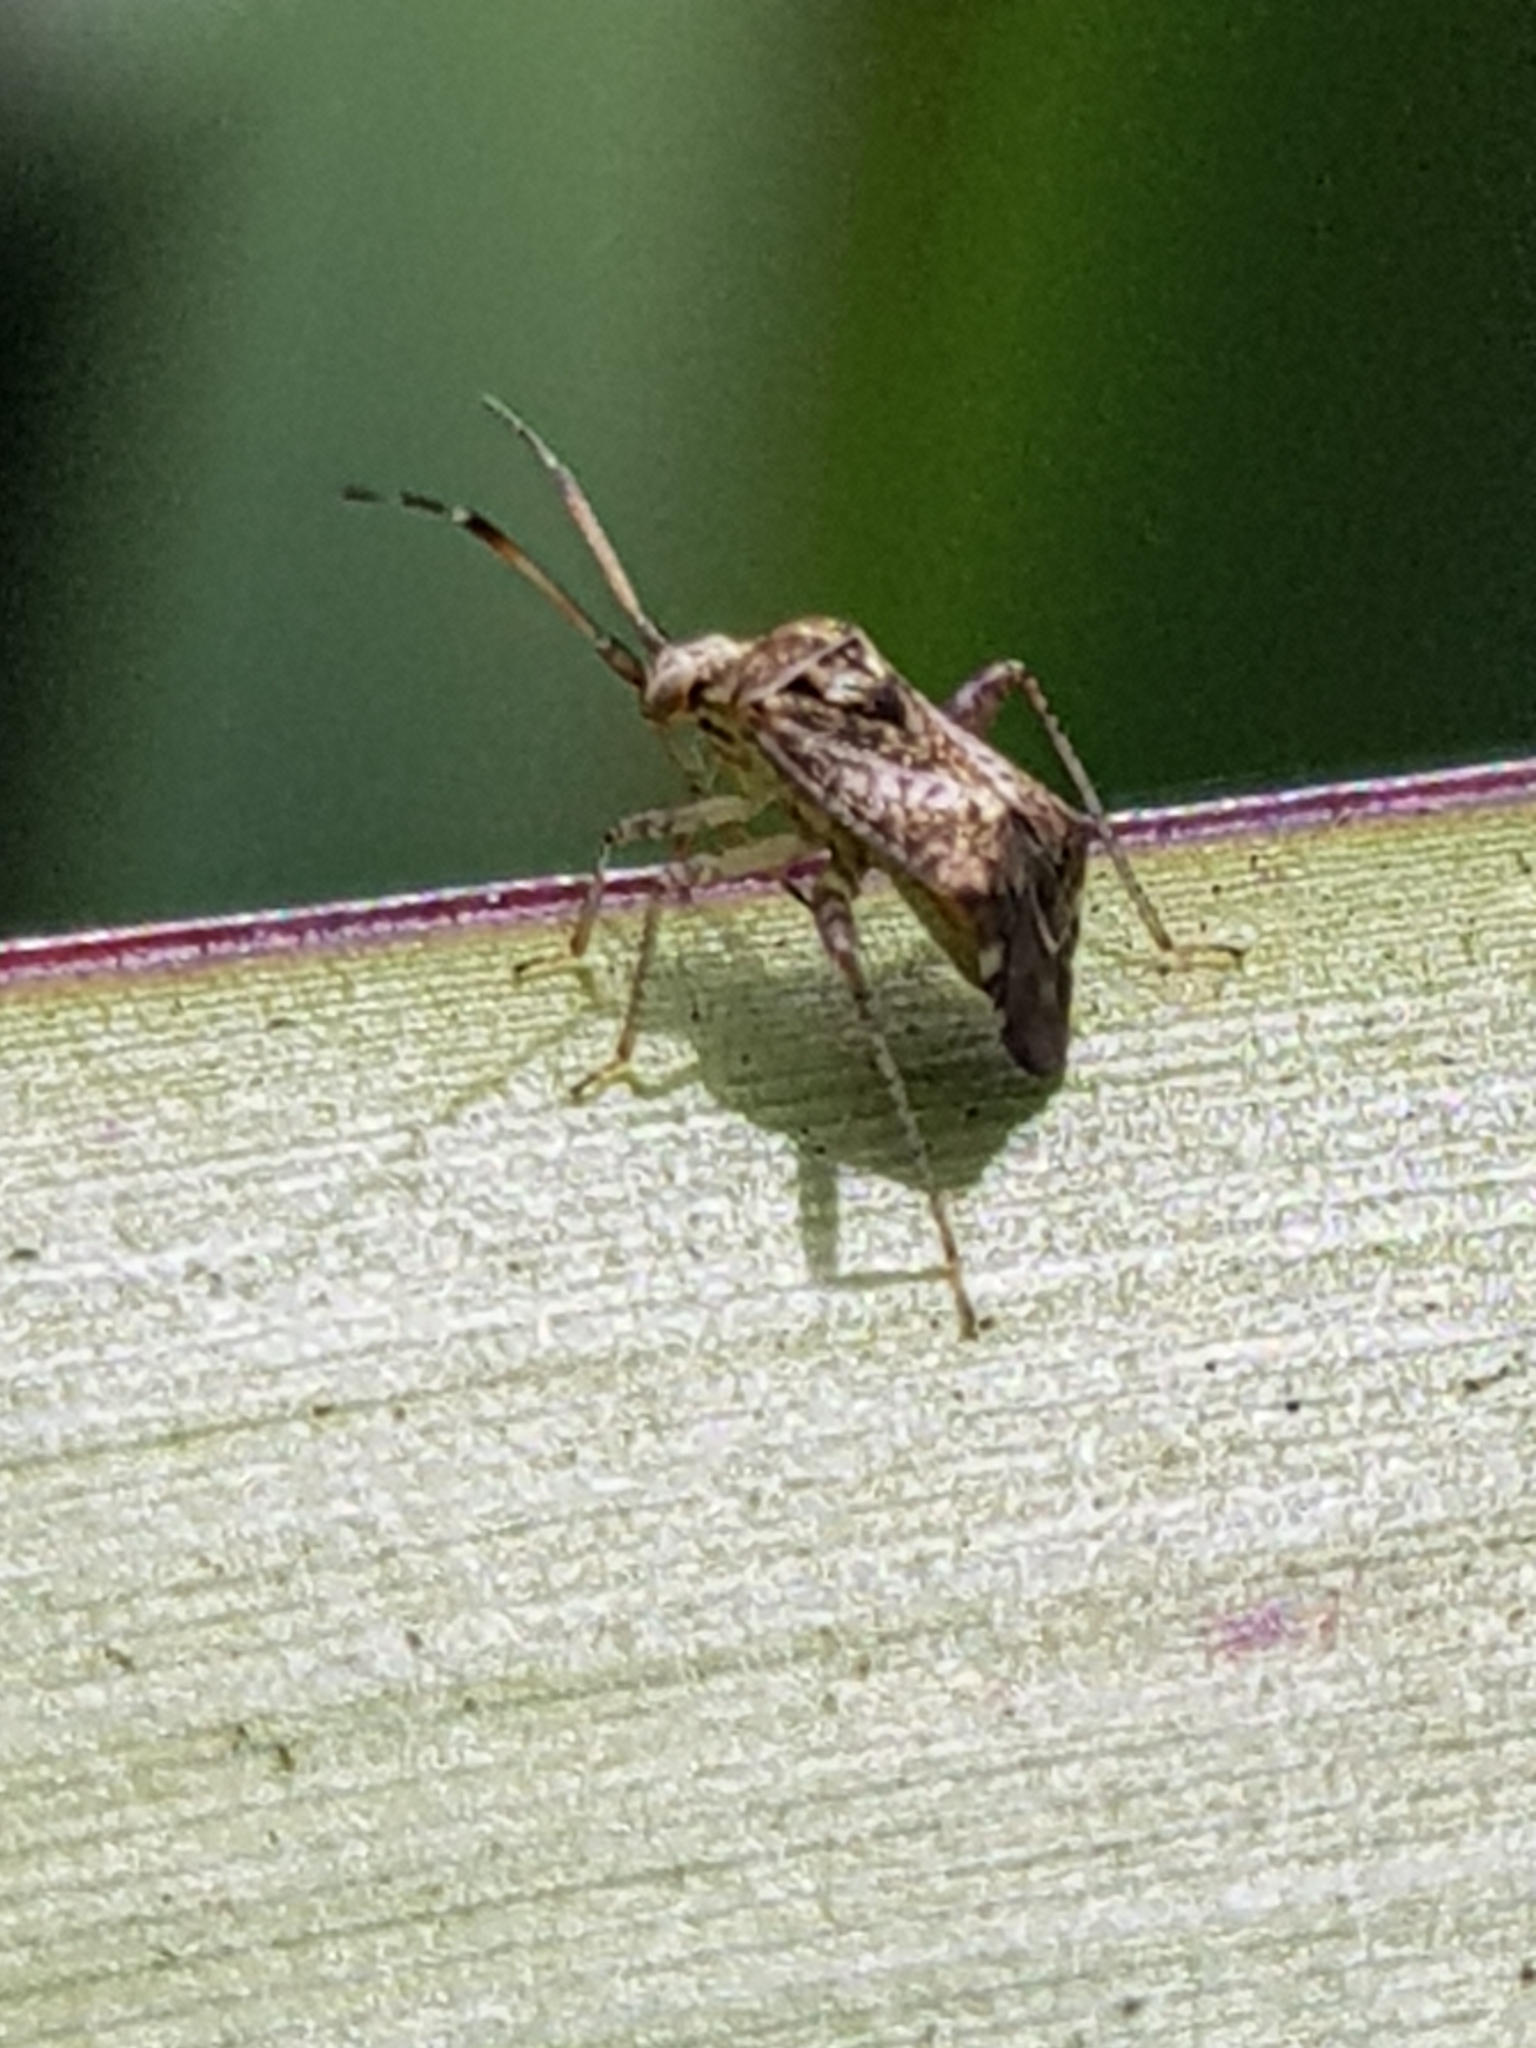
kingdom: Animalia
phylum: Arthropoda
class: Insecta
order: Hemiptera
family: Miridae
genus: Sidnia
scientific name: Sidnia kinbergi
